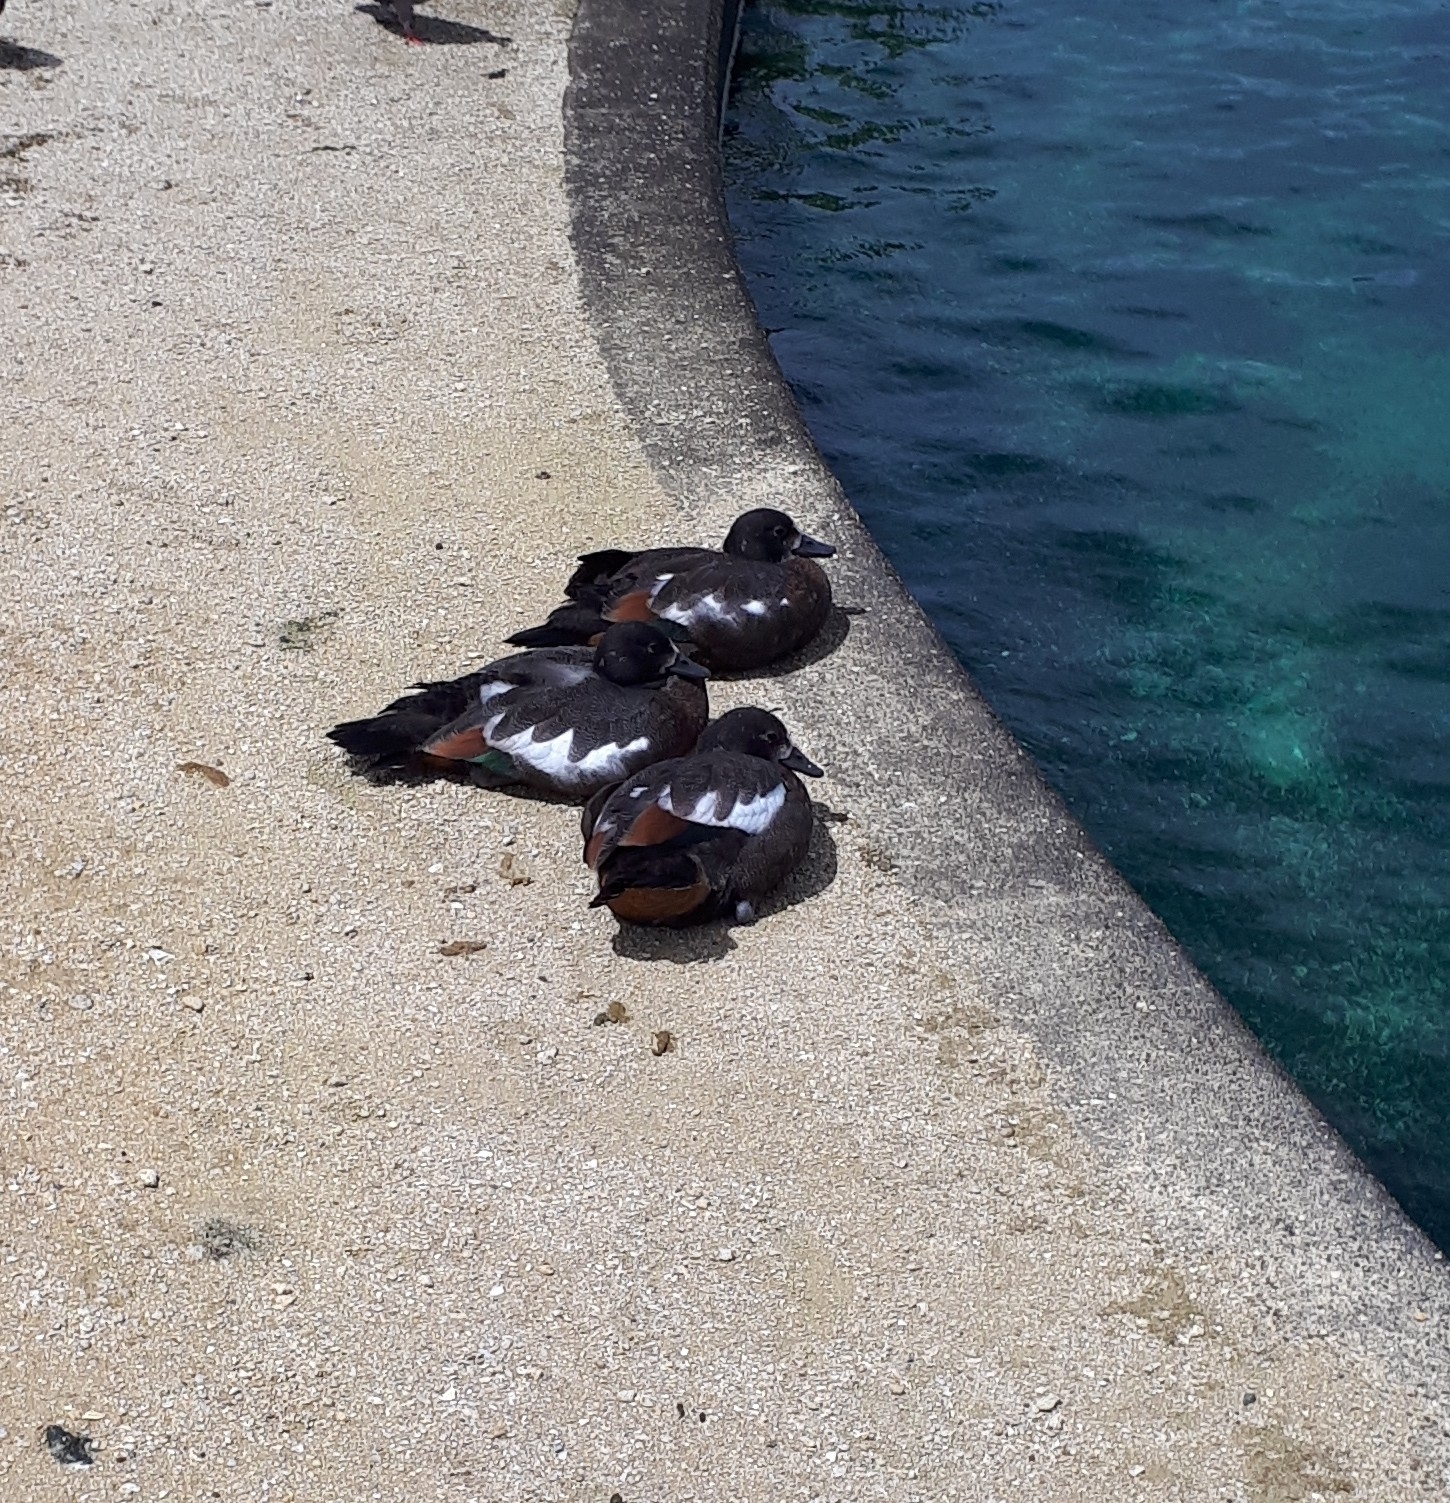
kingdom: Animalia
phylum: Chordata
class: Aves
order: Anseriformes
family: Anatidae
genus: Tadorna
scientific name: Tadorna variegata
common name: Paradise shelduck
